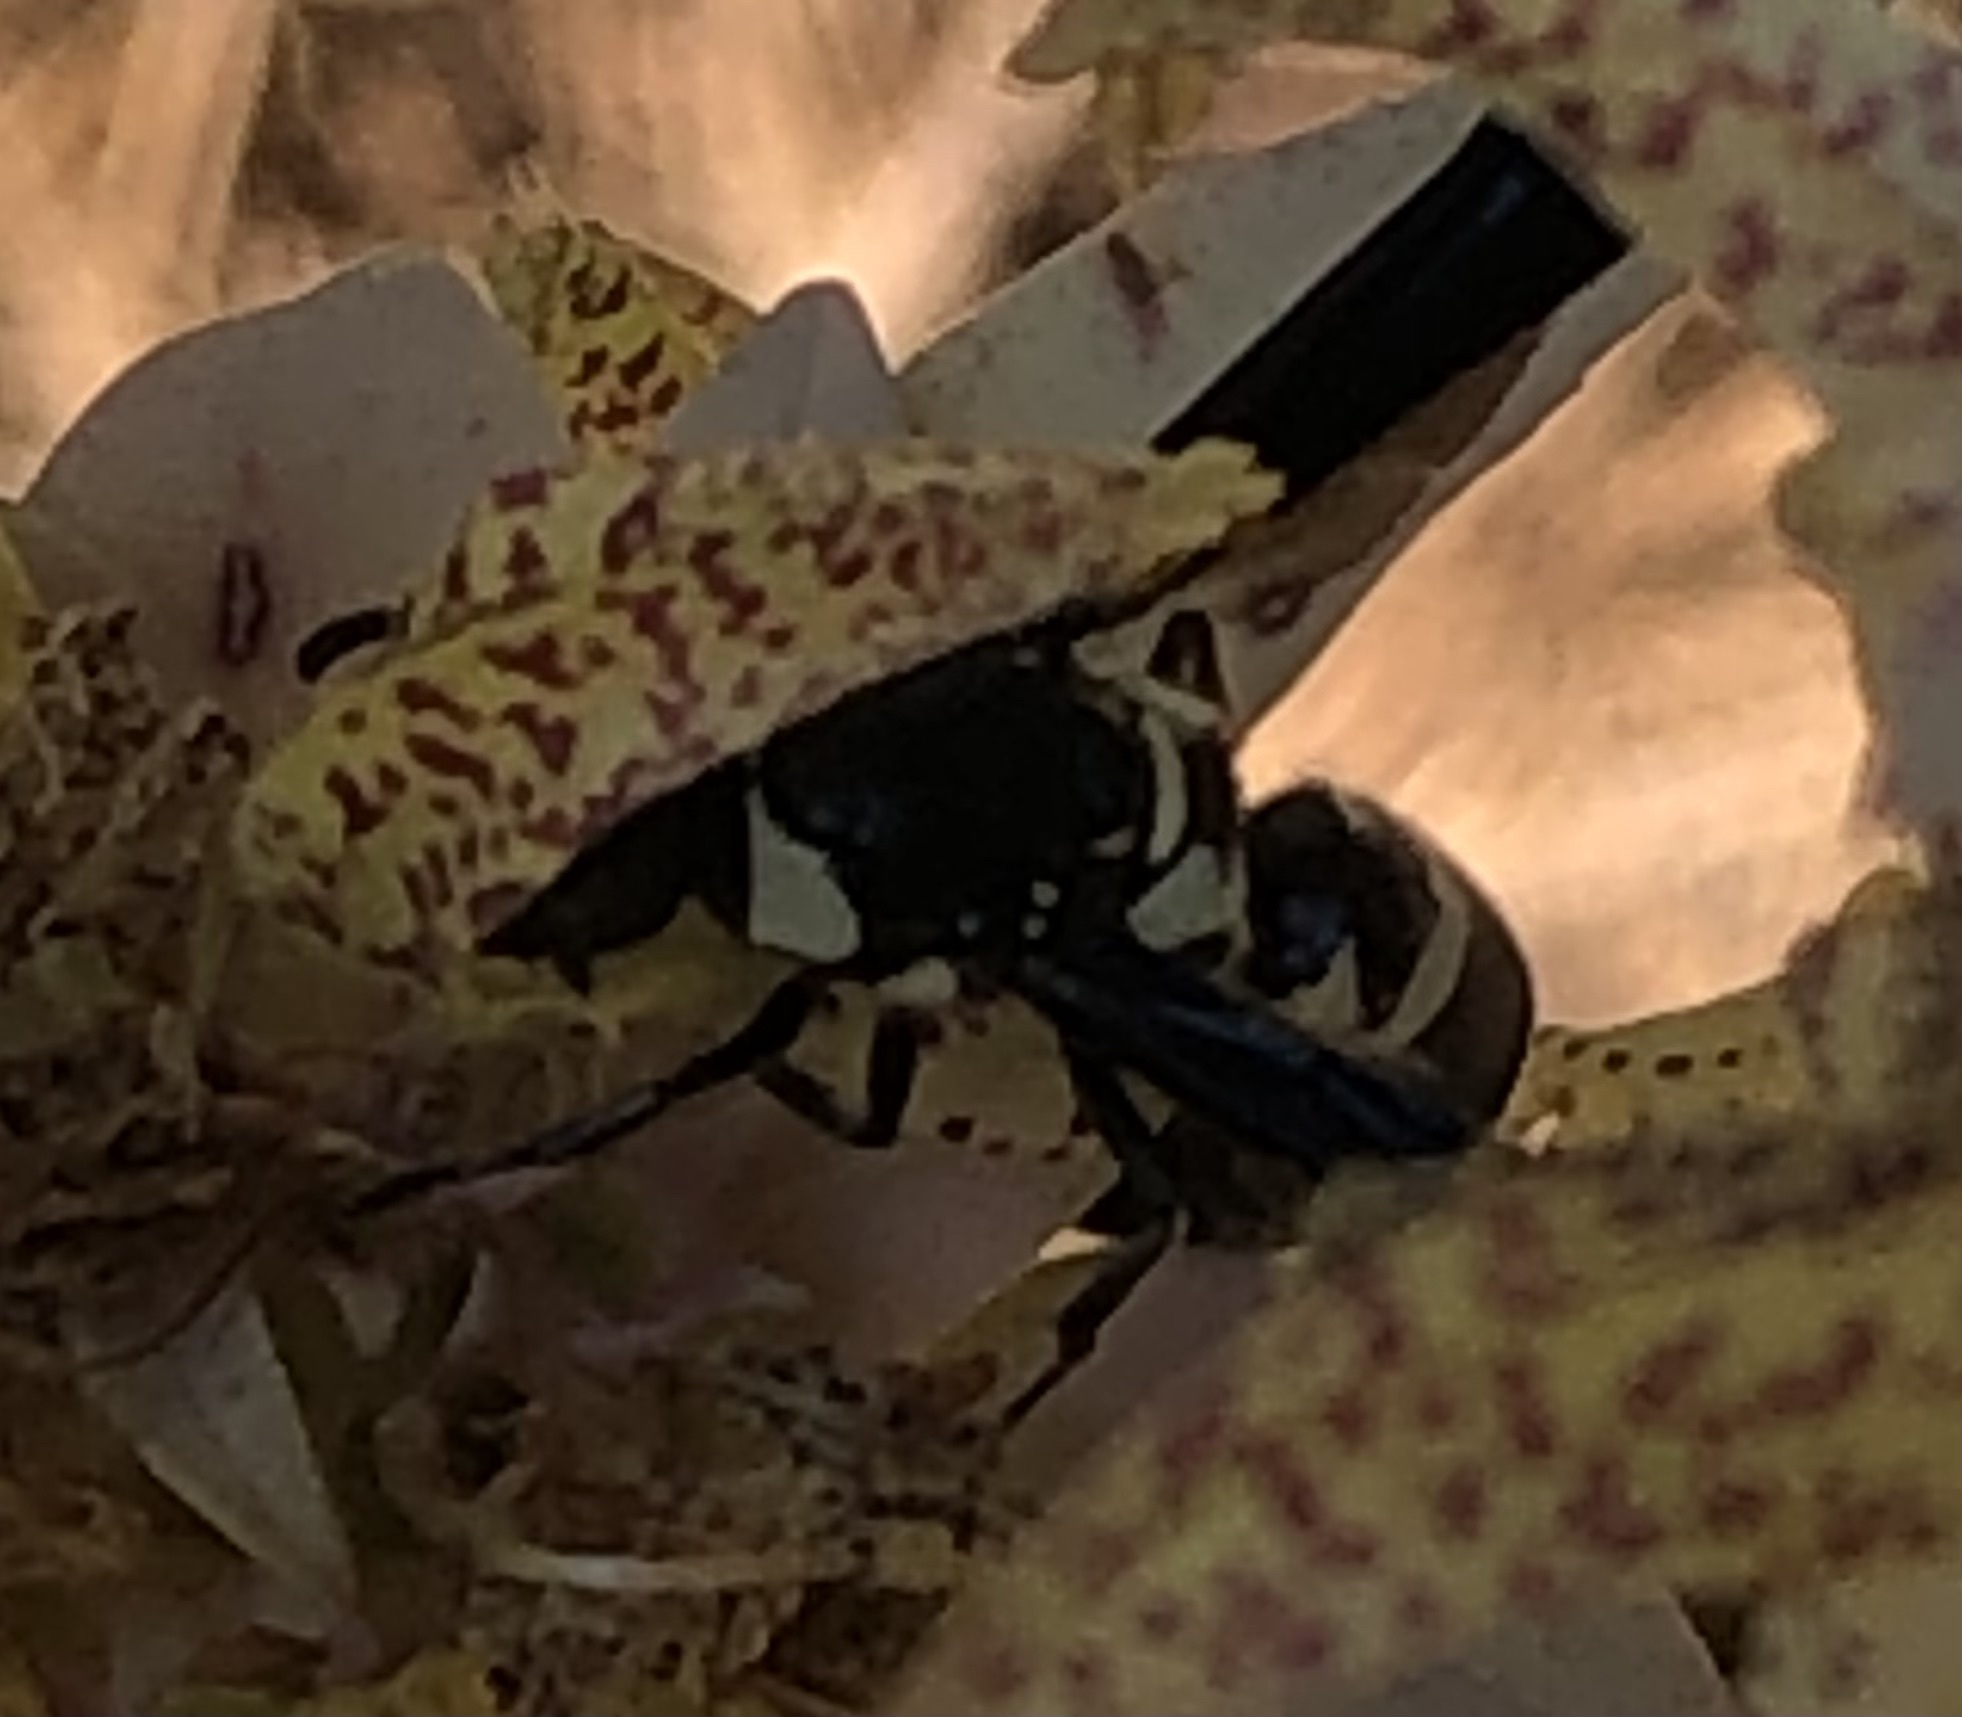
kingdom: Animalia
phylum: Arthropoda
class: Insecta
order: Hymenoptera
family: Eumenidae
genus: Pseudodynerus
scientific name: Pseudodynerus quadrisectus
